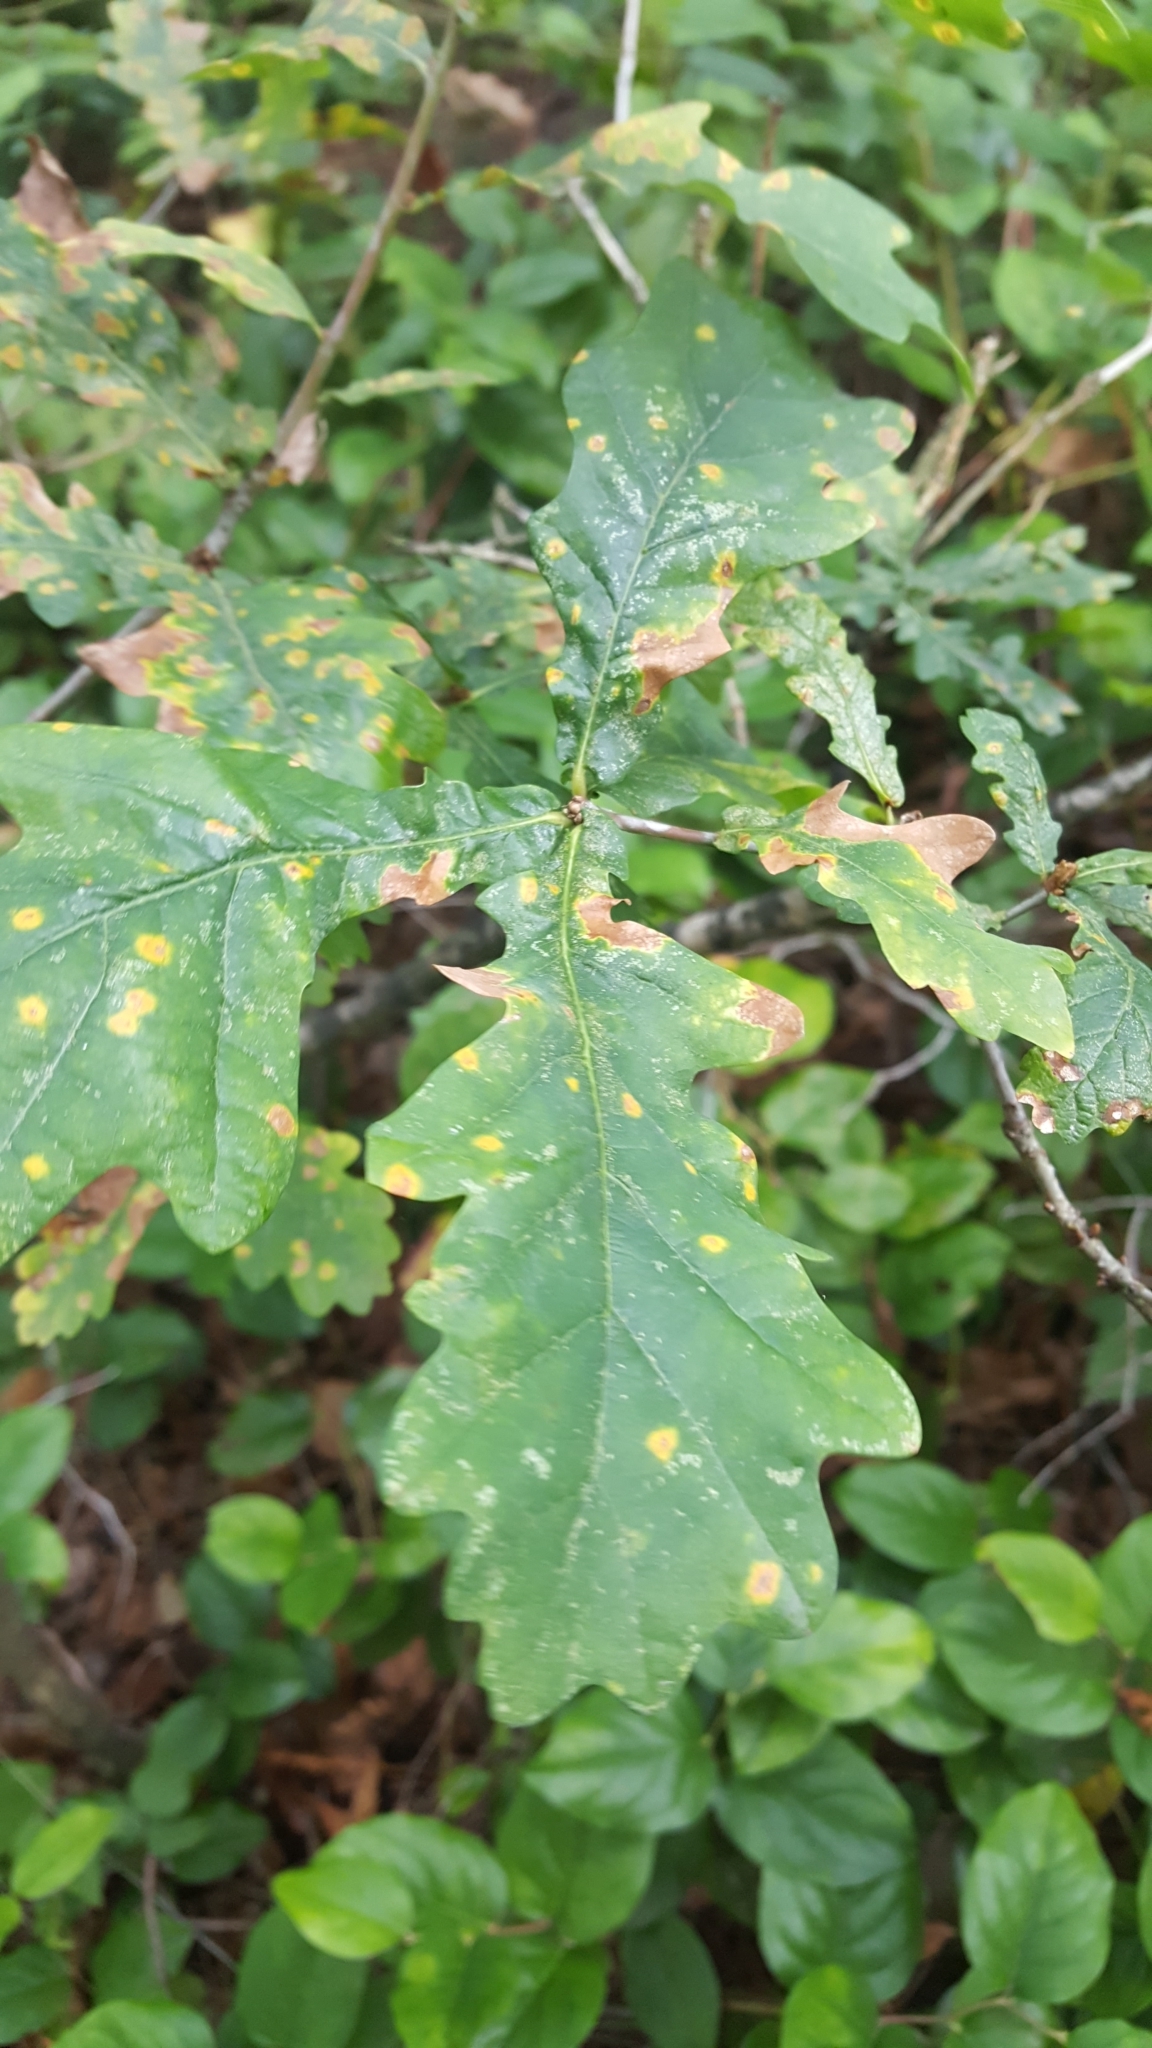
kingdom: Plantae
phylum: Tracheophyta
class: Magnoliopsida
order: Fagales
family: Fagaceae
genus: Quercus
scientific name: Quercus robur
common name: Pedunculate oak
